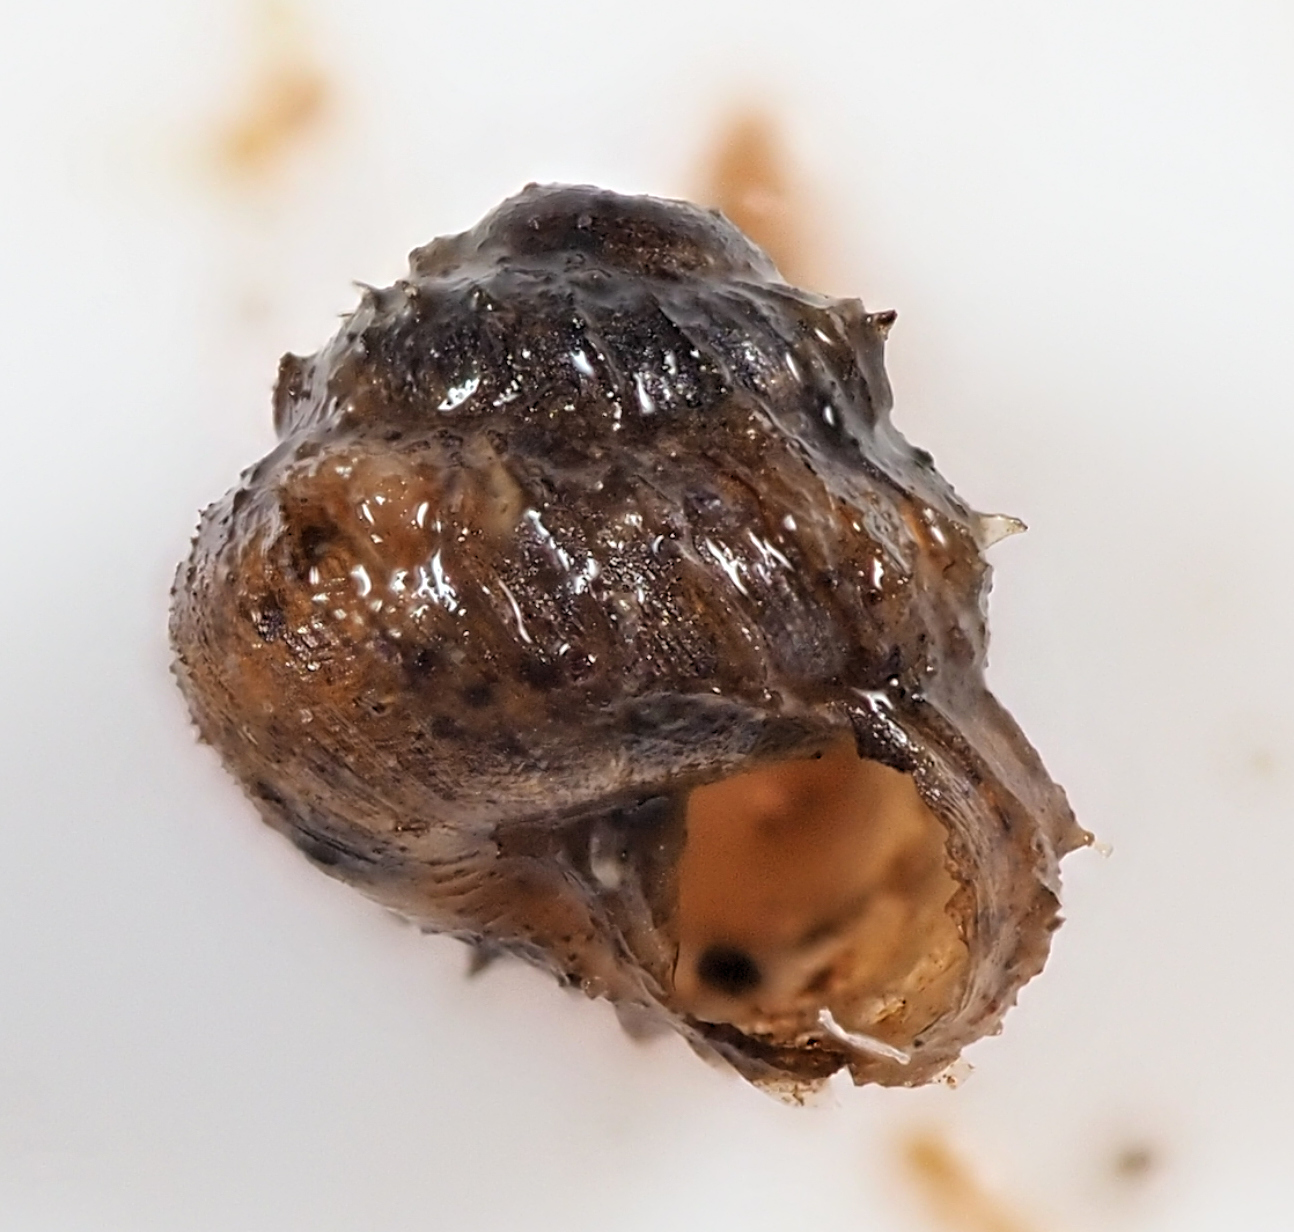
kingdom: Animalia
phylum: Mollusca
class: Gastropoda
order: Stylommatophora
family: Valloniidae
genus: Acanthinula
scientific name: Acanthinula aculeata
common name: Prickly snail
